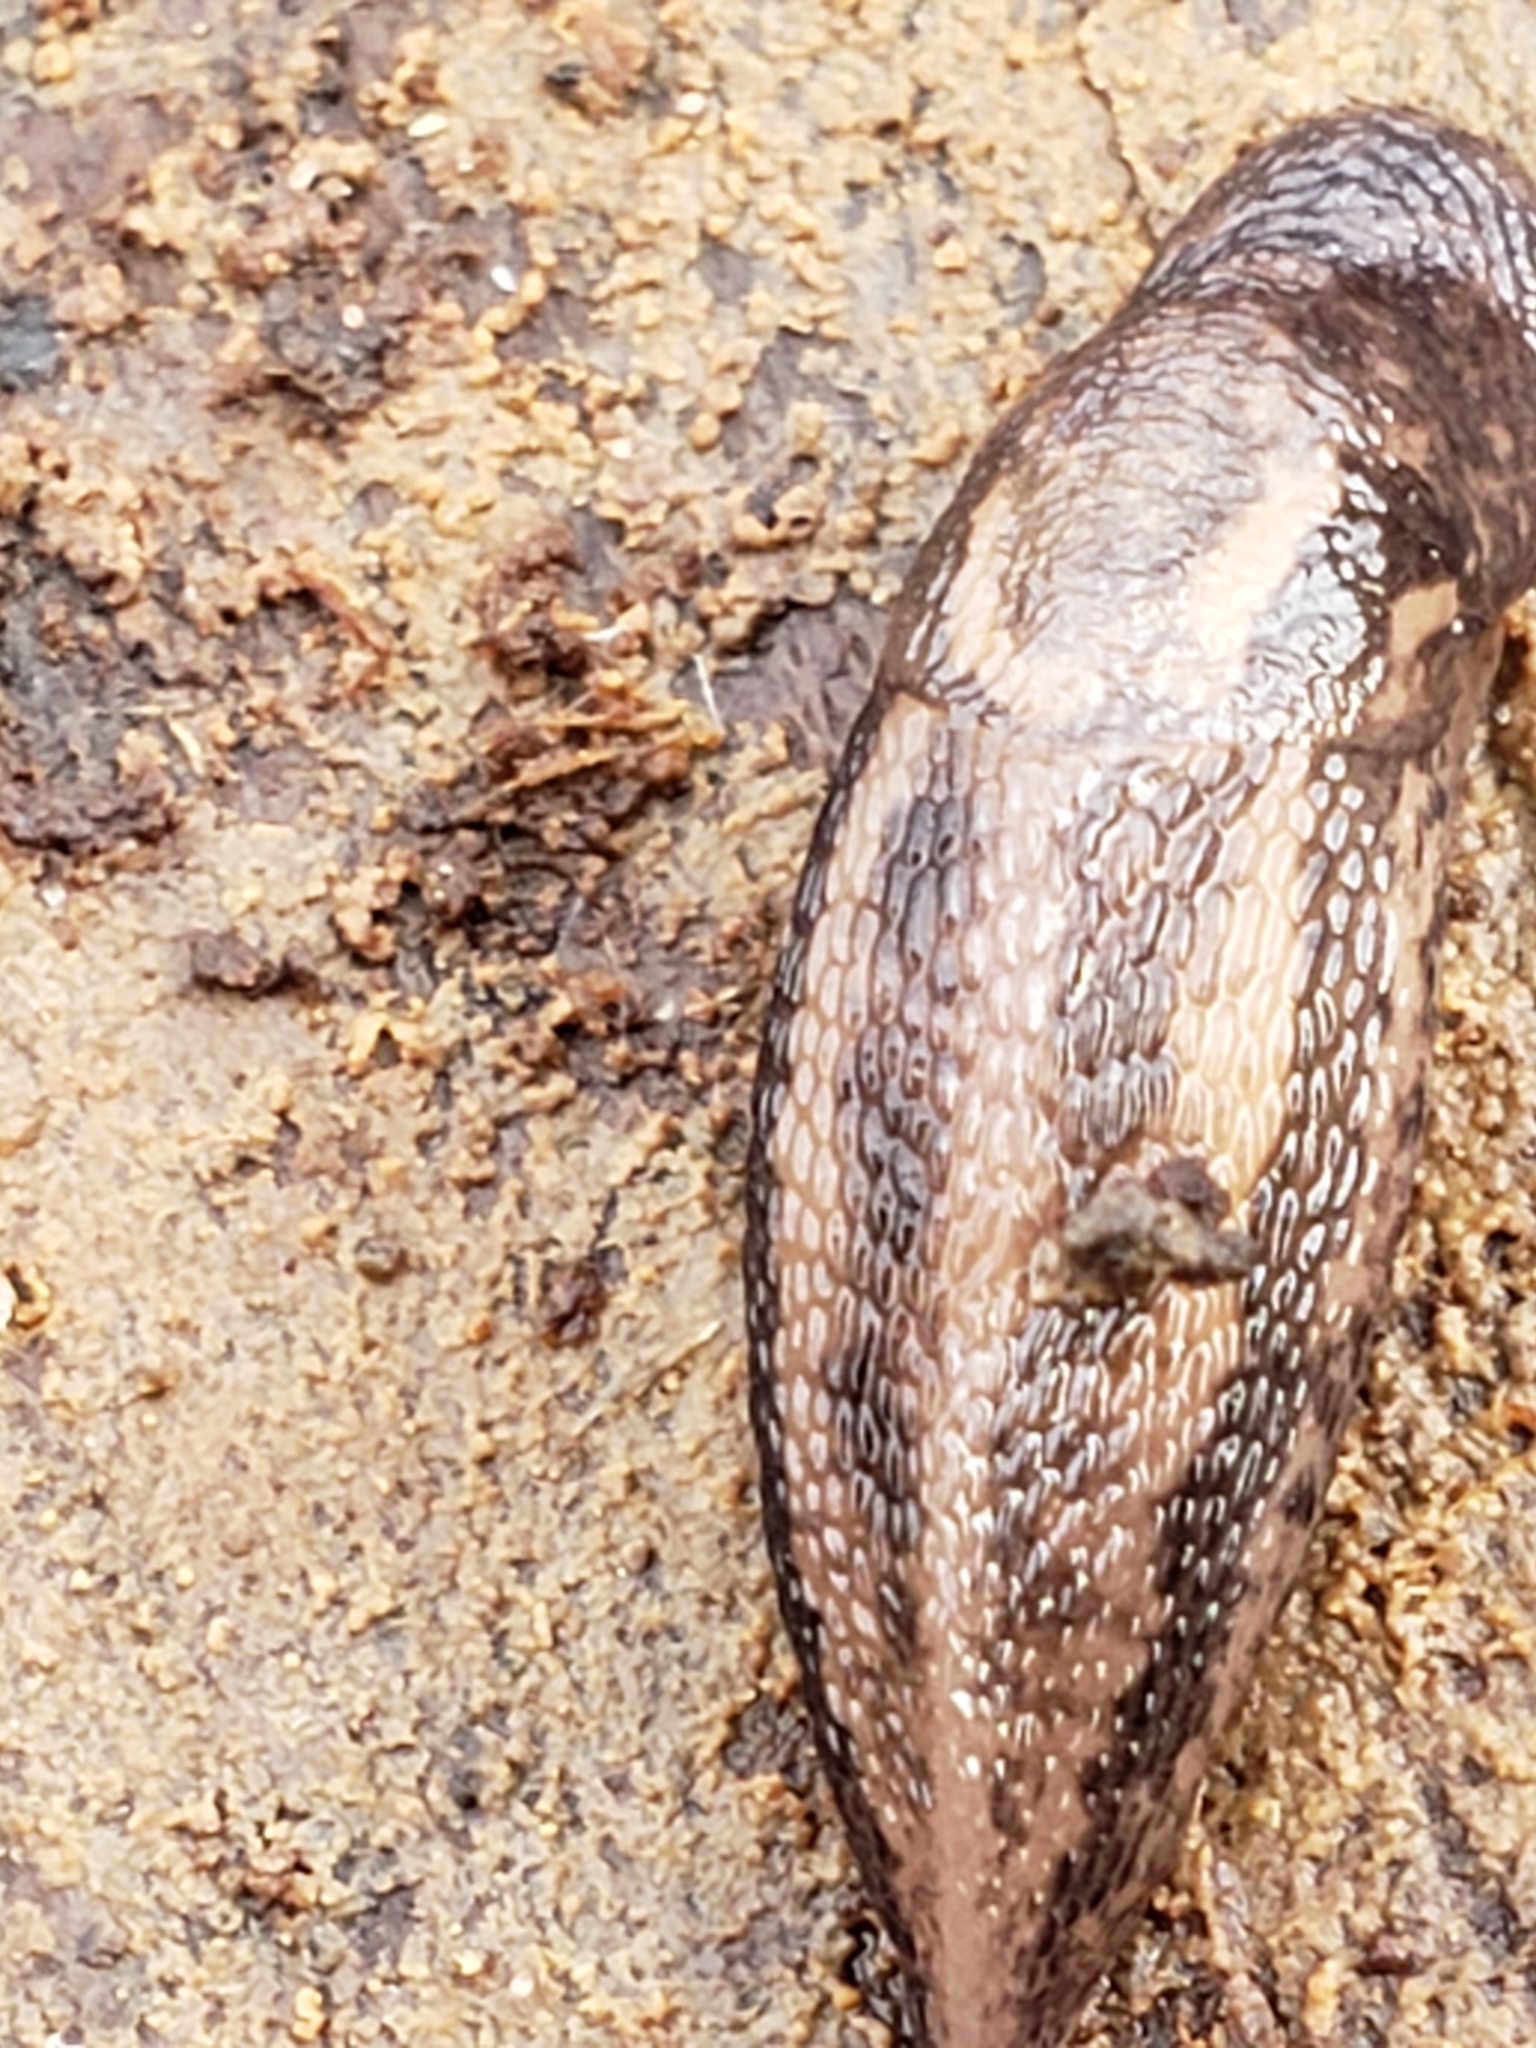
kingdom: Animalia
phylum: Mollusca
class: Gastropoda
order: Stylommatophora
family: Limacidae
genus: Limax
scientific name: Limax maximus
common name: Great grey slug
